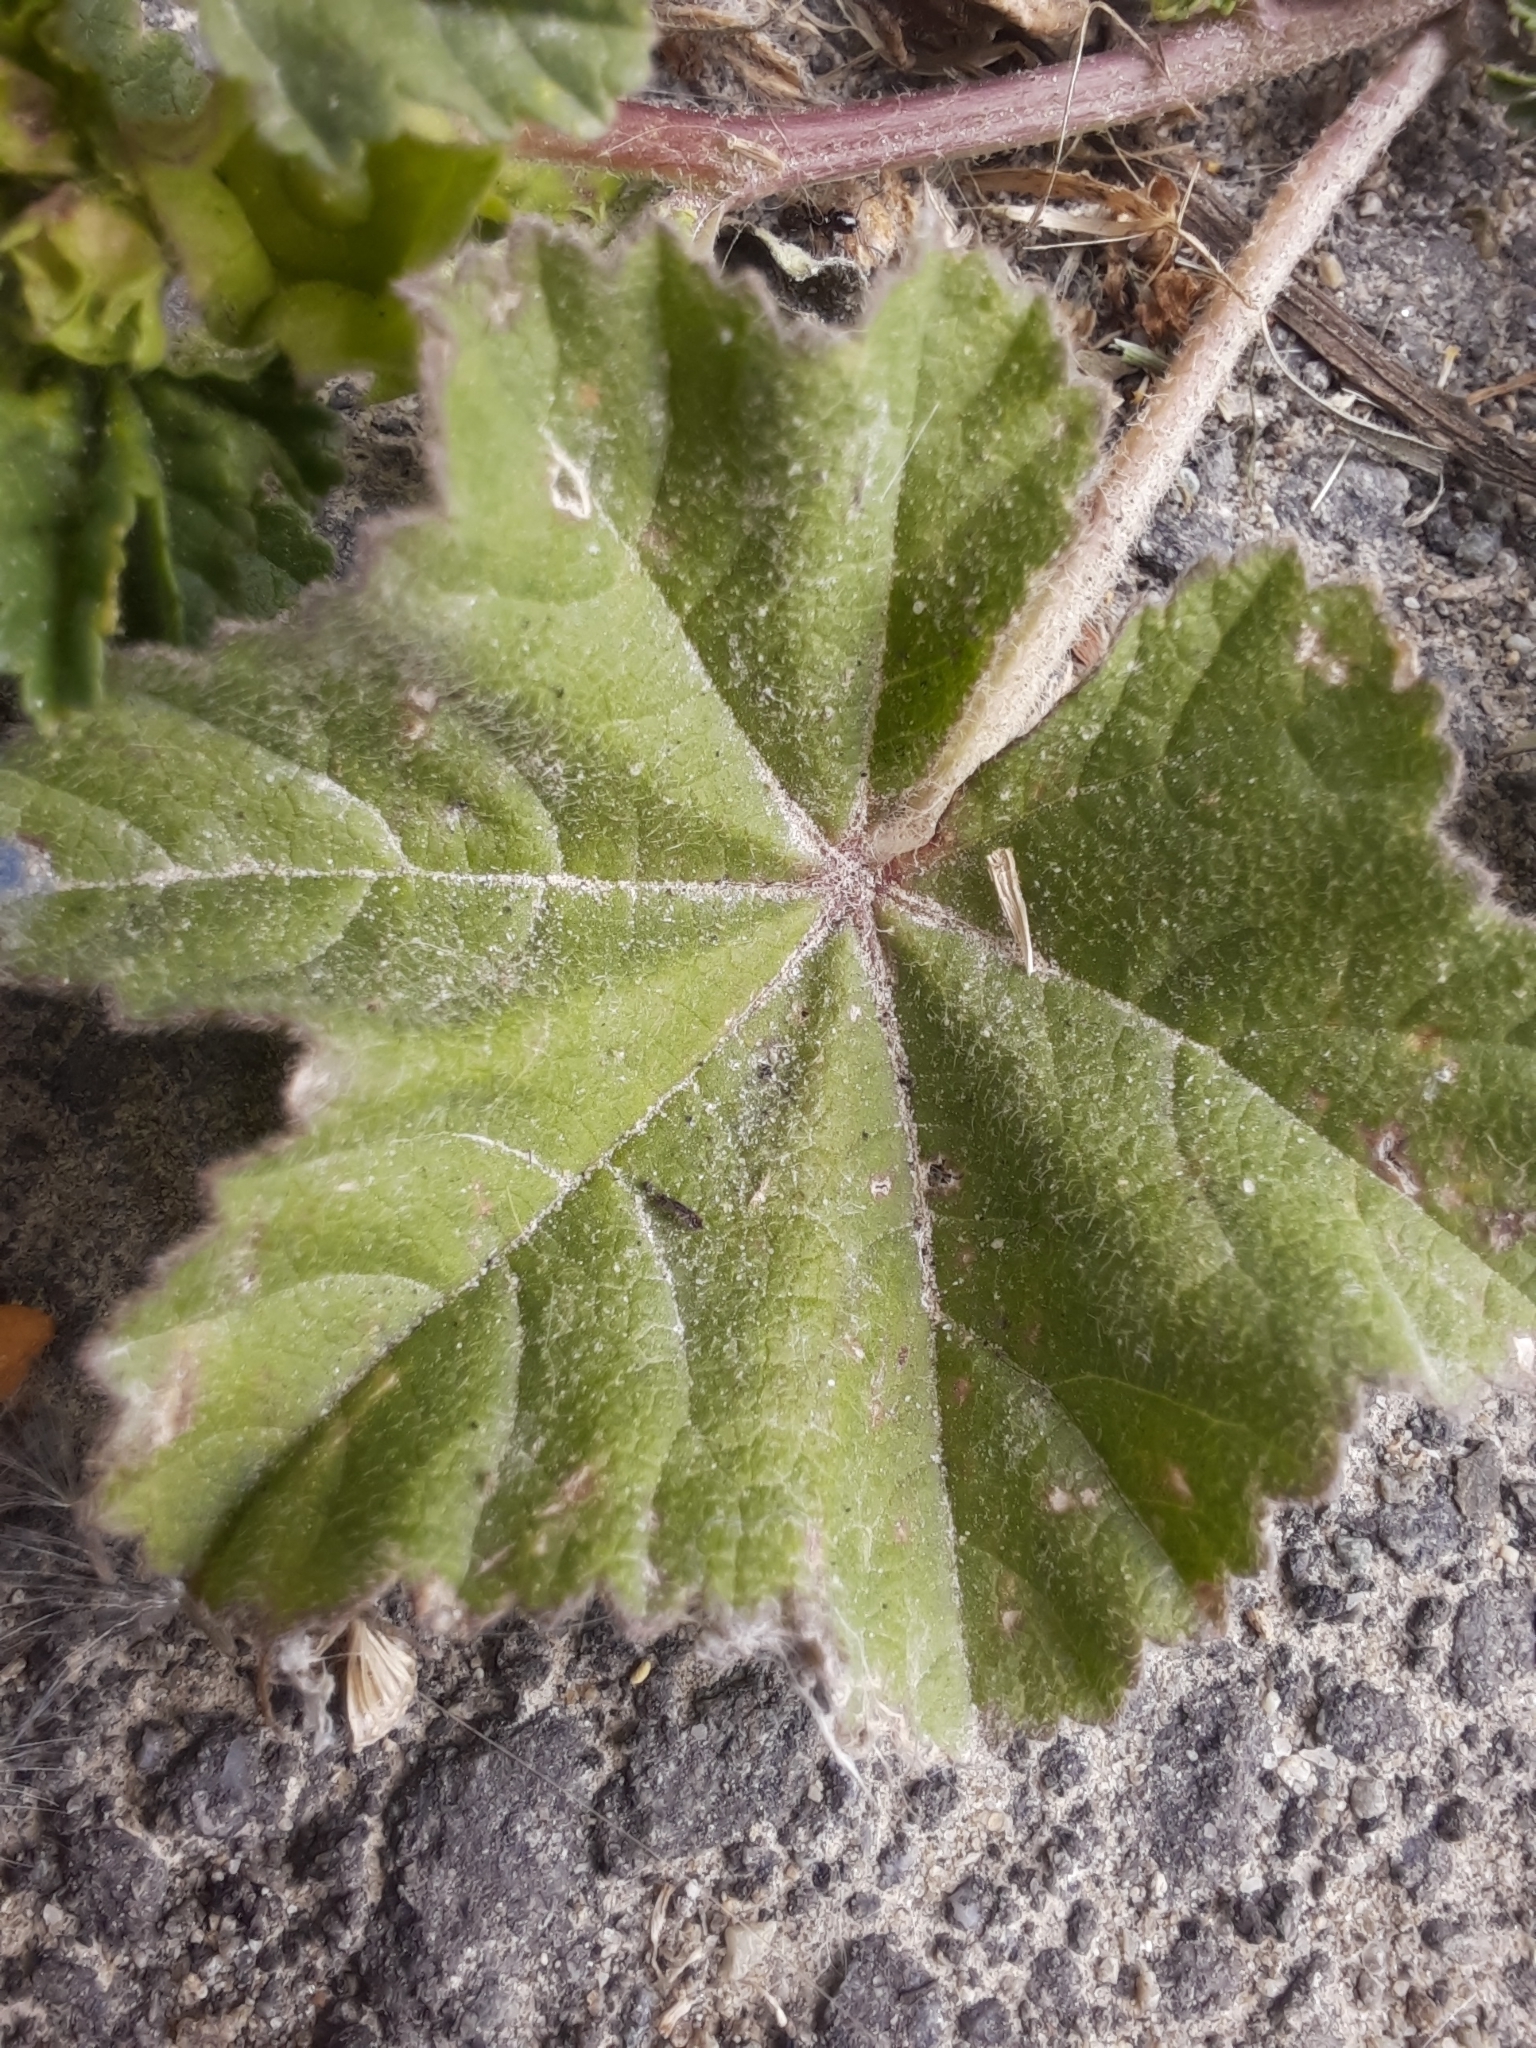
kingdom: Plantae
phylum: Tracheophyta
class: Magnoliopsida
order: Malvales
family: Malvaceae
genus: Malva
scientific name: Malva parviflora
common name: Least mallow
